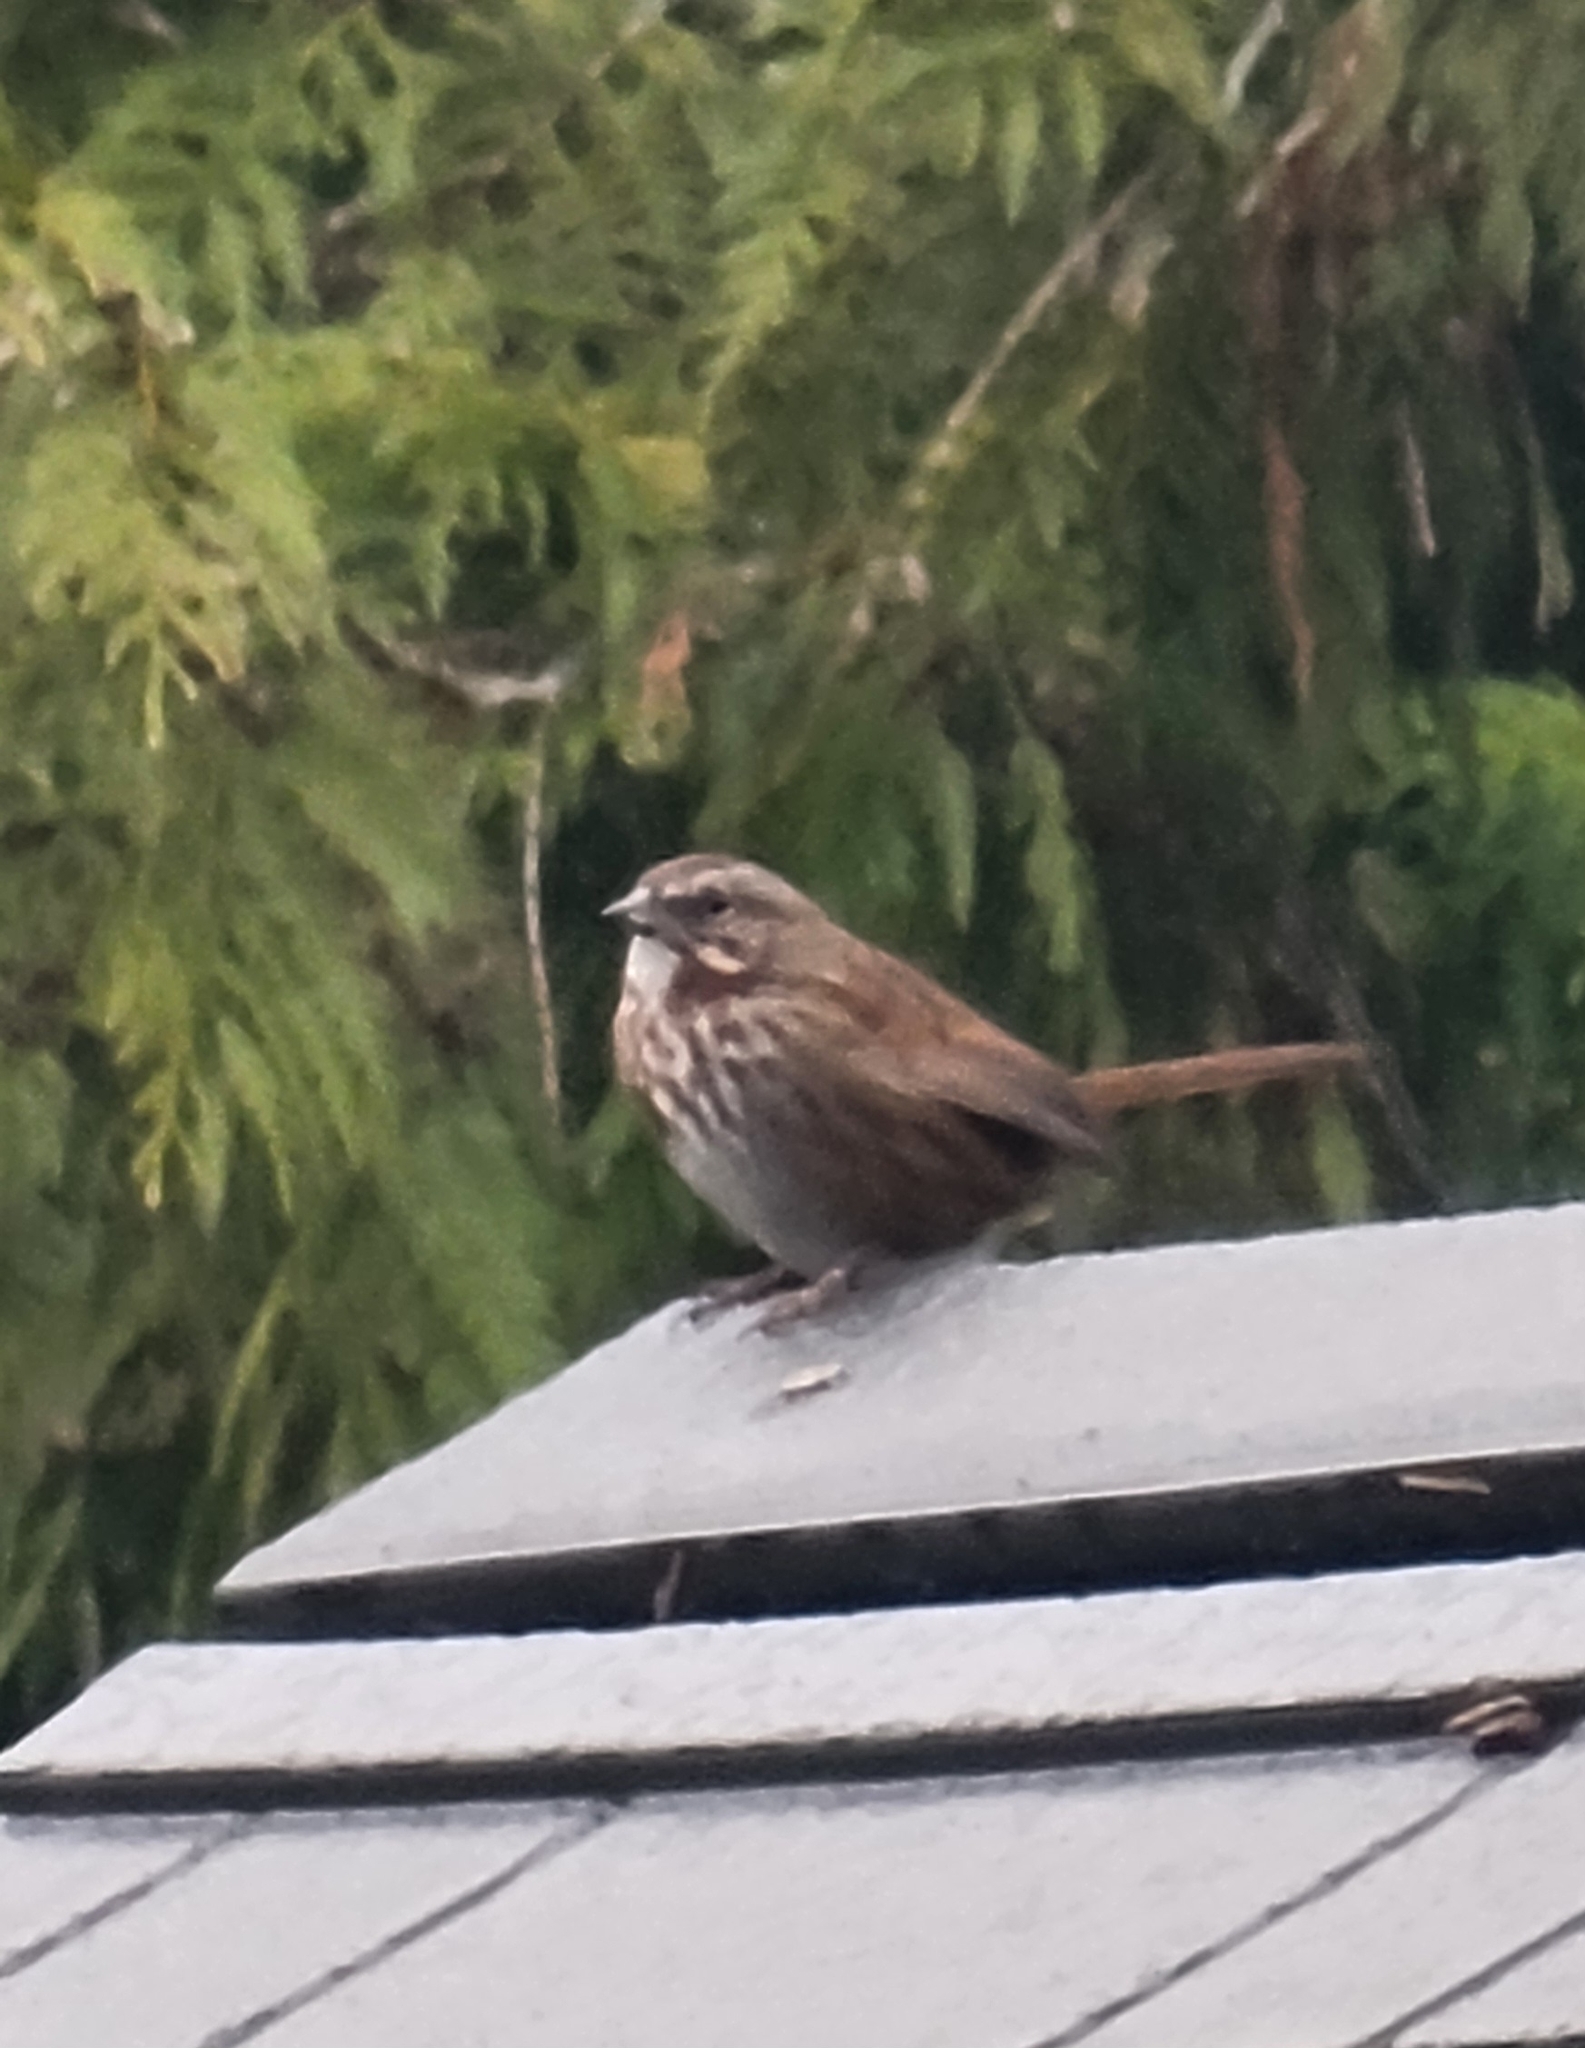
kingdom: Animalia
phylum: Chordata
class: Aves
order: Passeriformes
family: Passerellidae
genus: Melospiza
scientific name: Melospiza melodia
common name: Song sparrow
